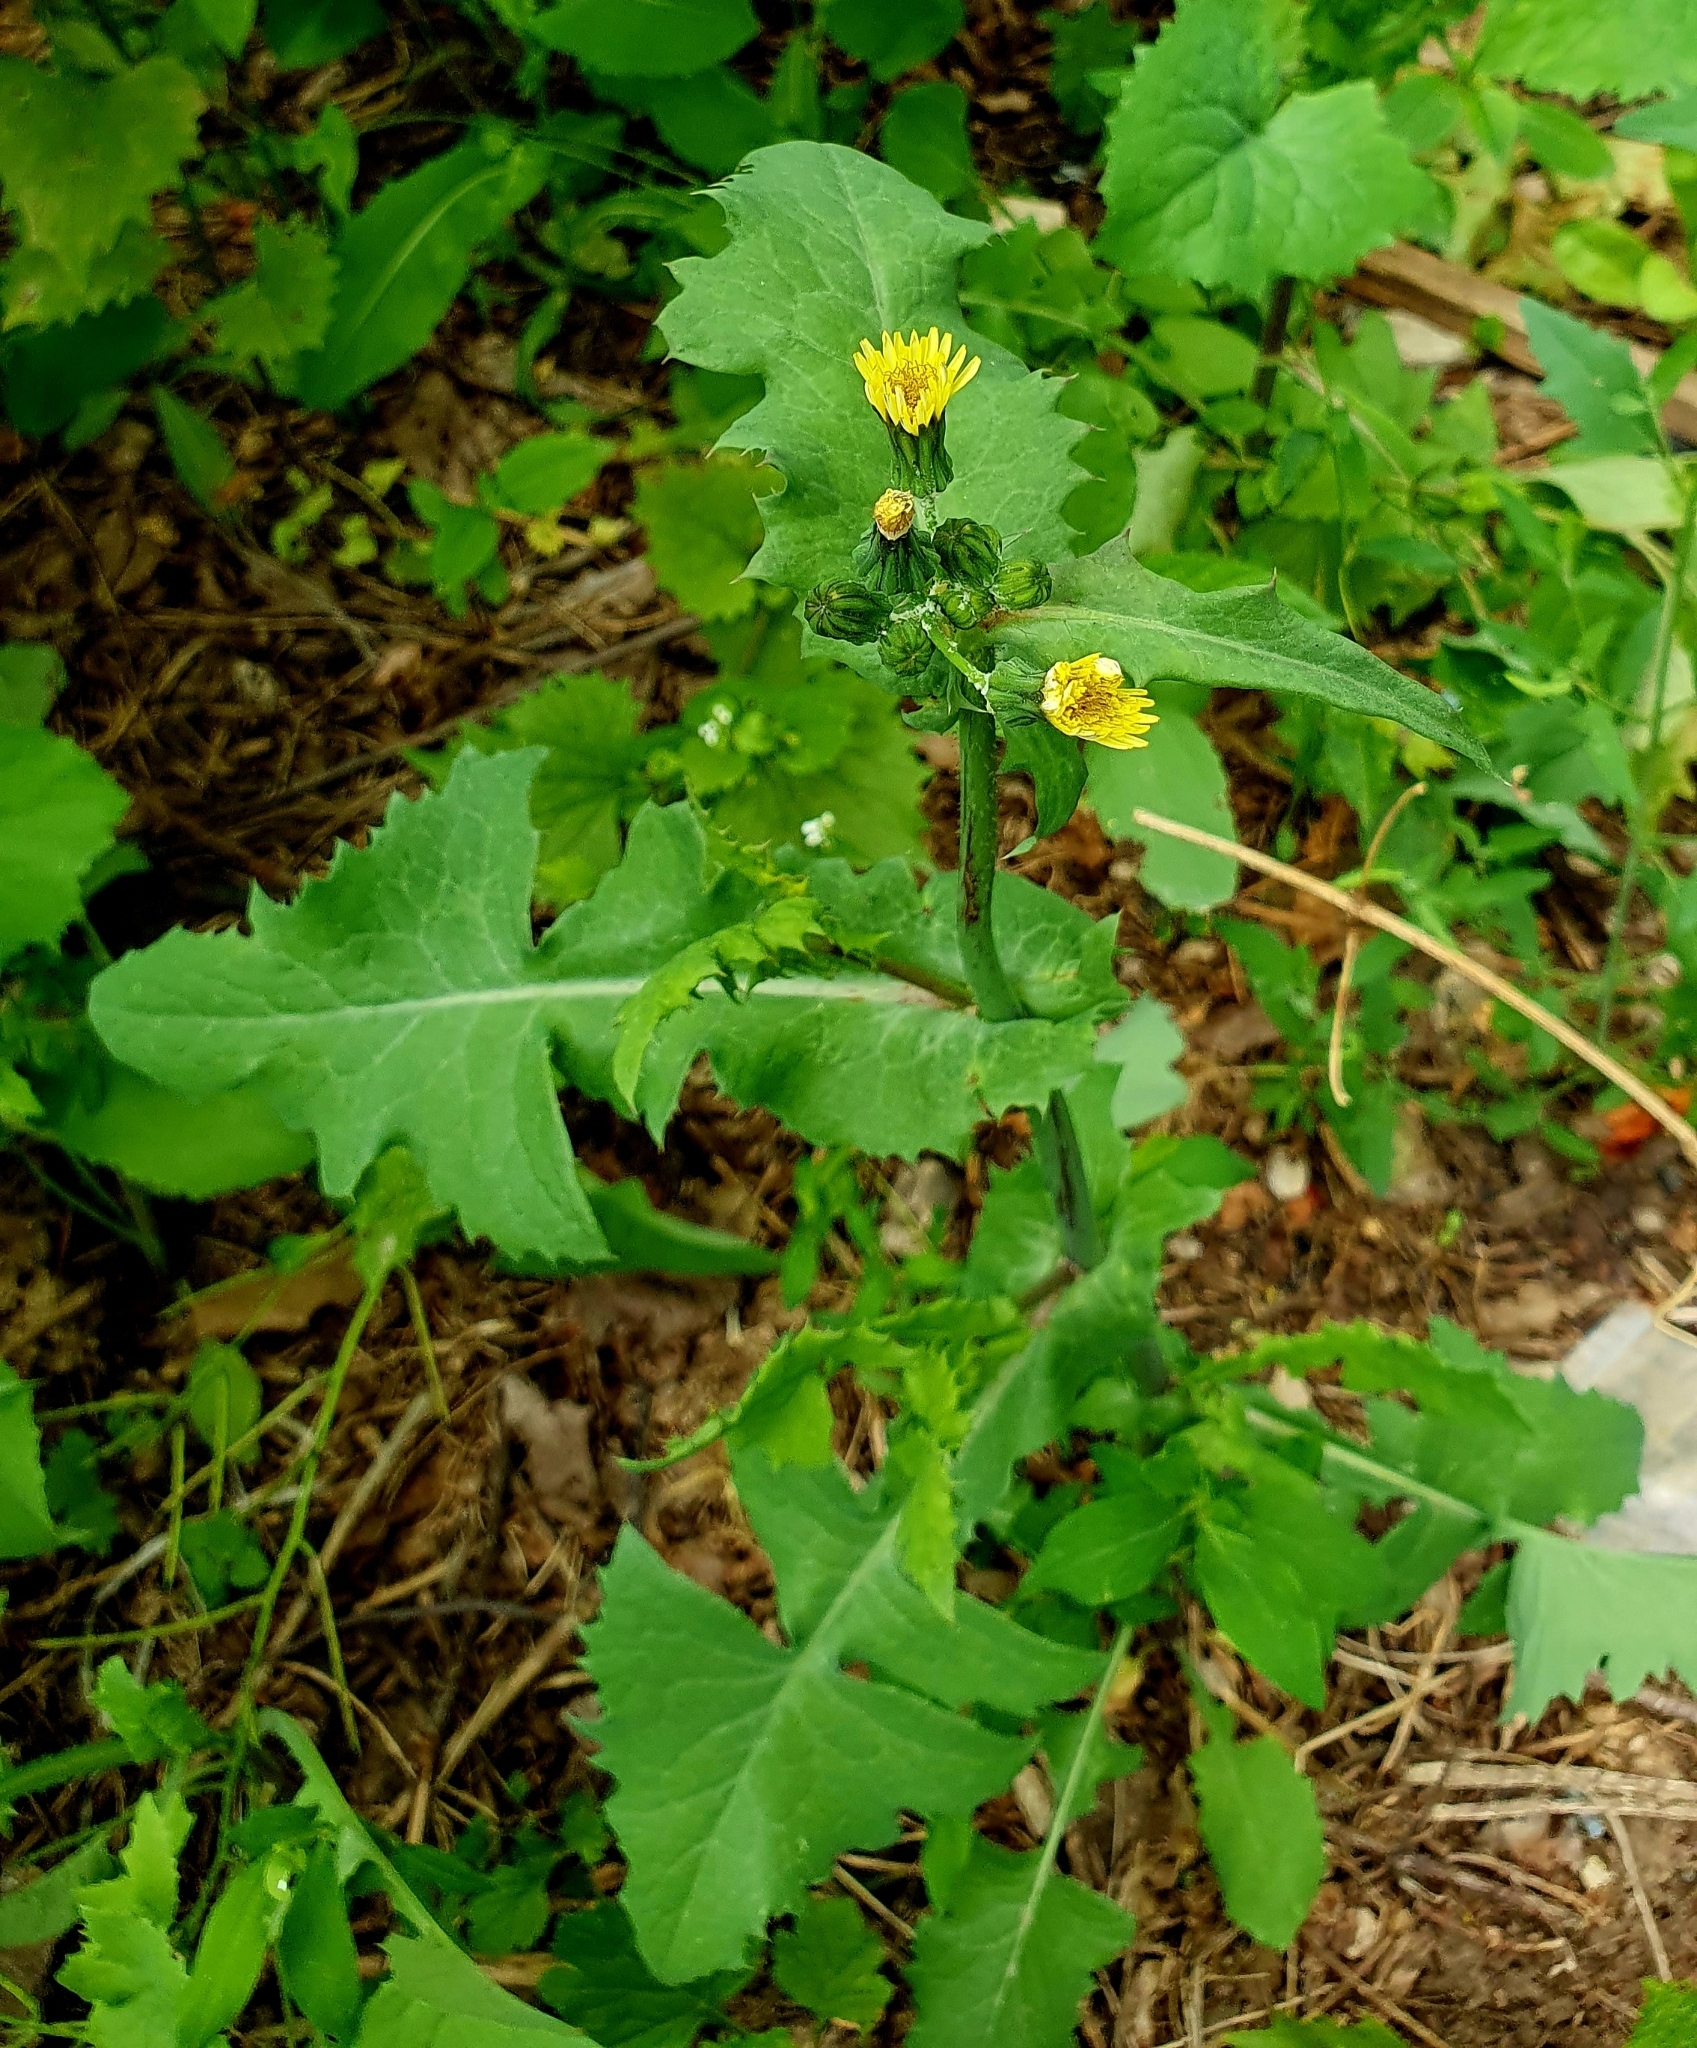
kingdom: Plantae
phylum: Tracheophyta
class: Magnoliopsida
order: Asterales
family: Asteraceae
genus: Sonchus
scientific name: Sonchus oleraceus
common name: Common sowthistle
